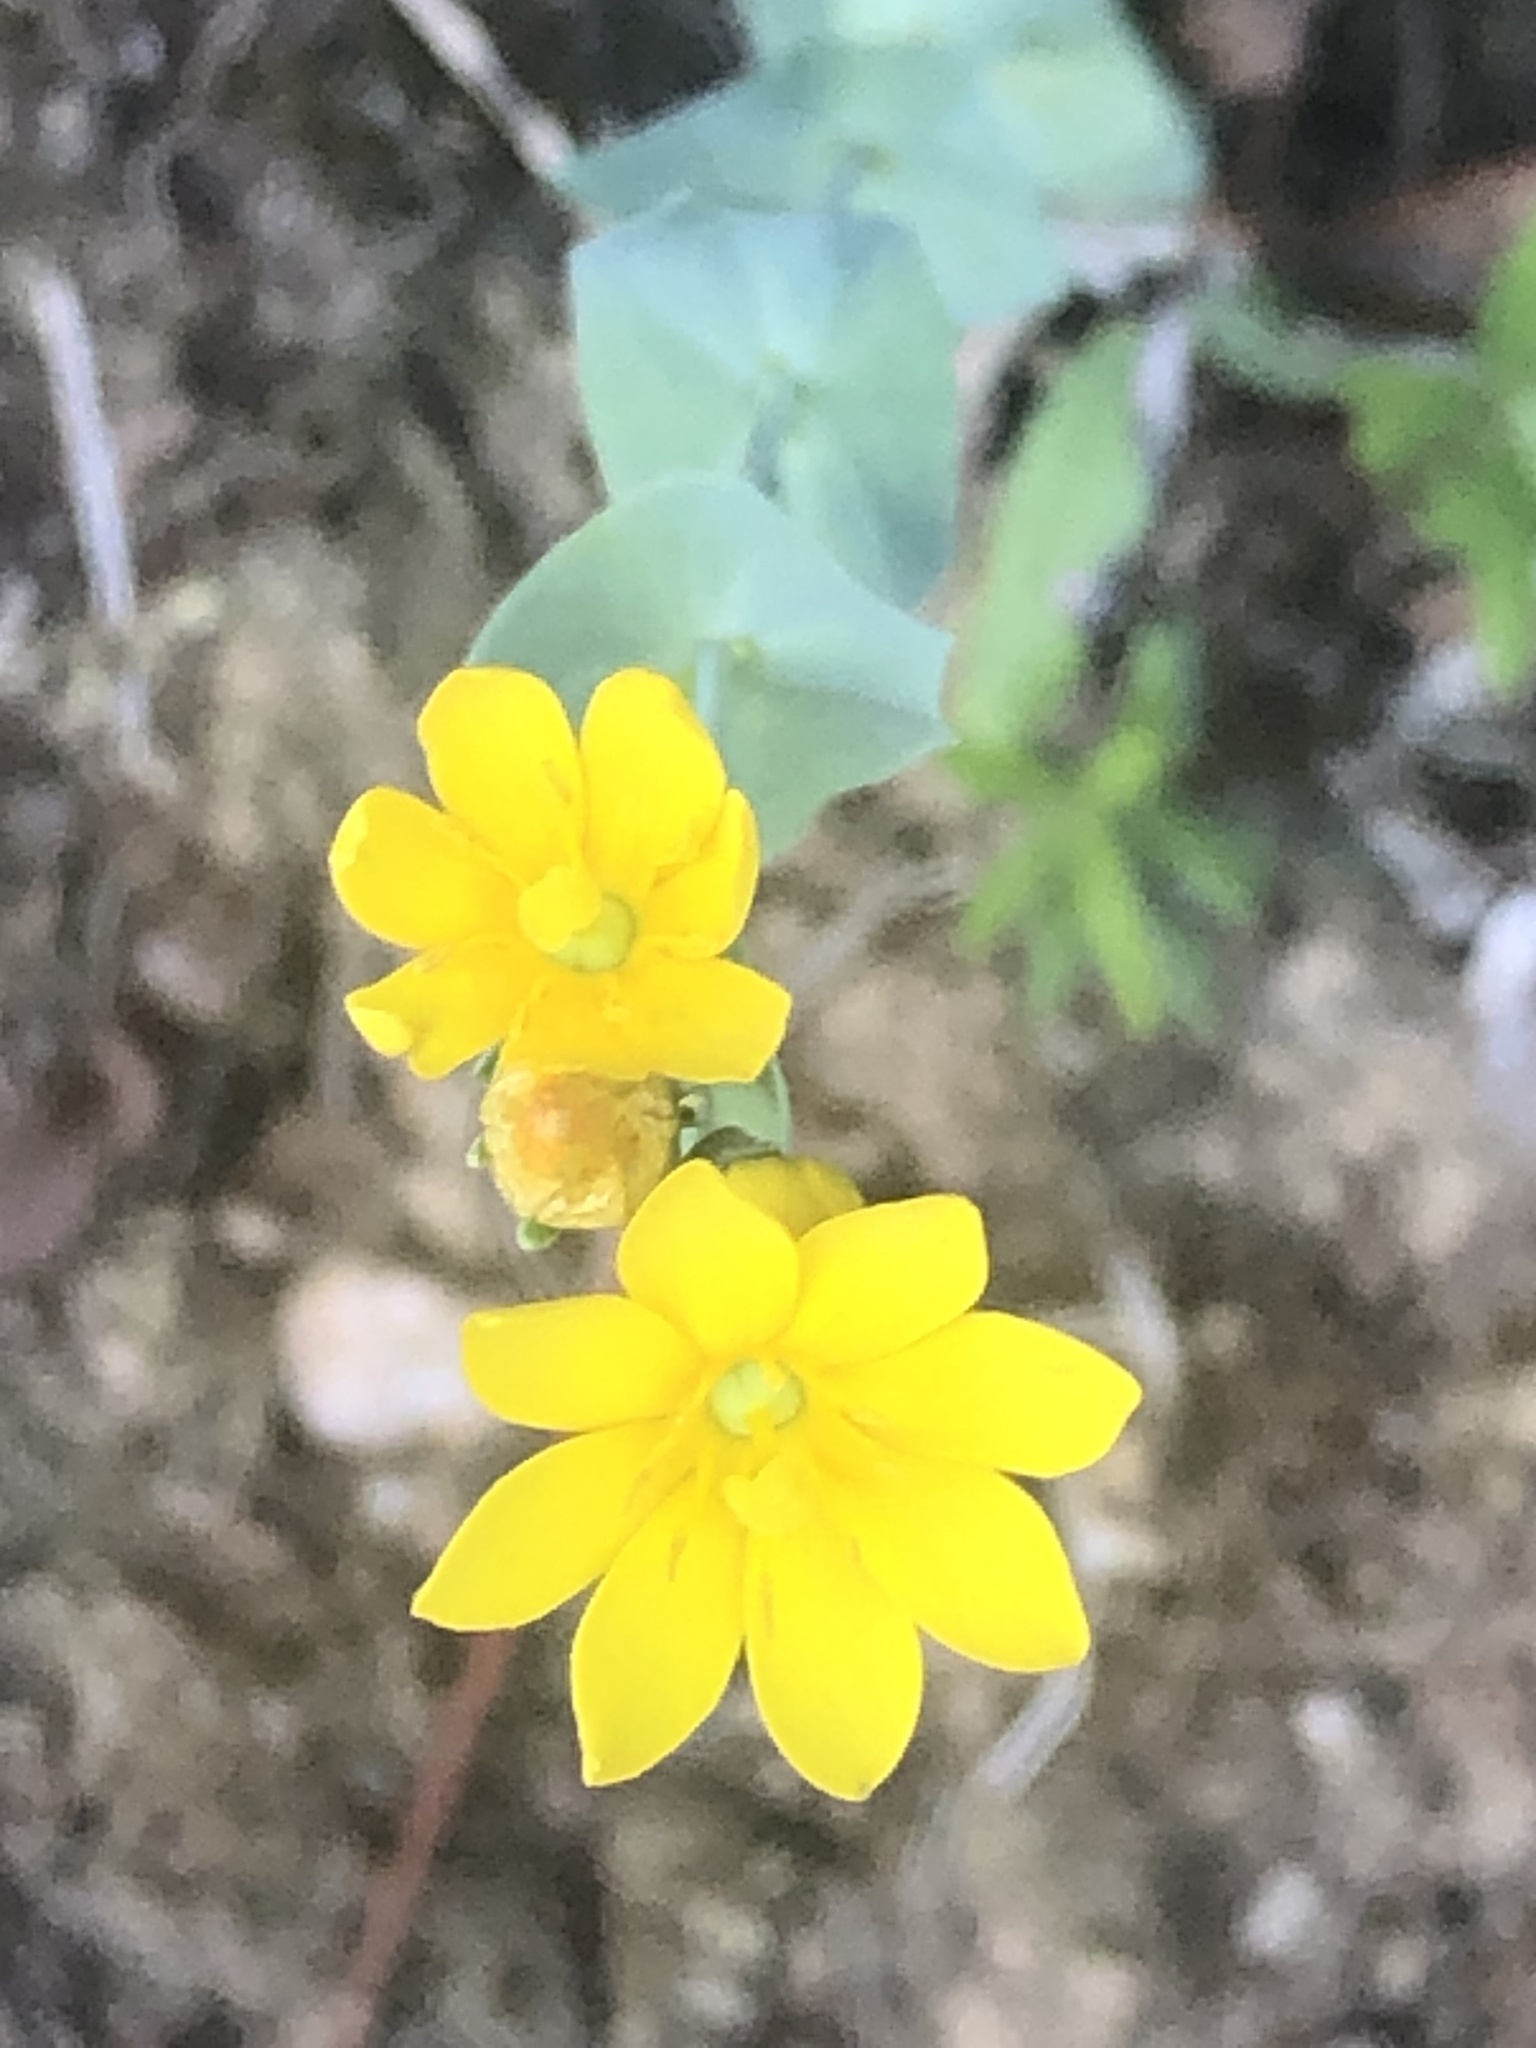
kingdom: Plantae
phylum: Tracheophyta
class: Magnoliopsida
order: Gentianales
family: Gentianaceae
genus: Blackstonia
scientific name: Blackstonia perfoliata
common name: Yellow-wort
